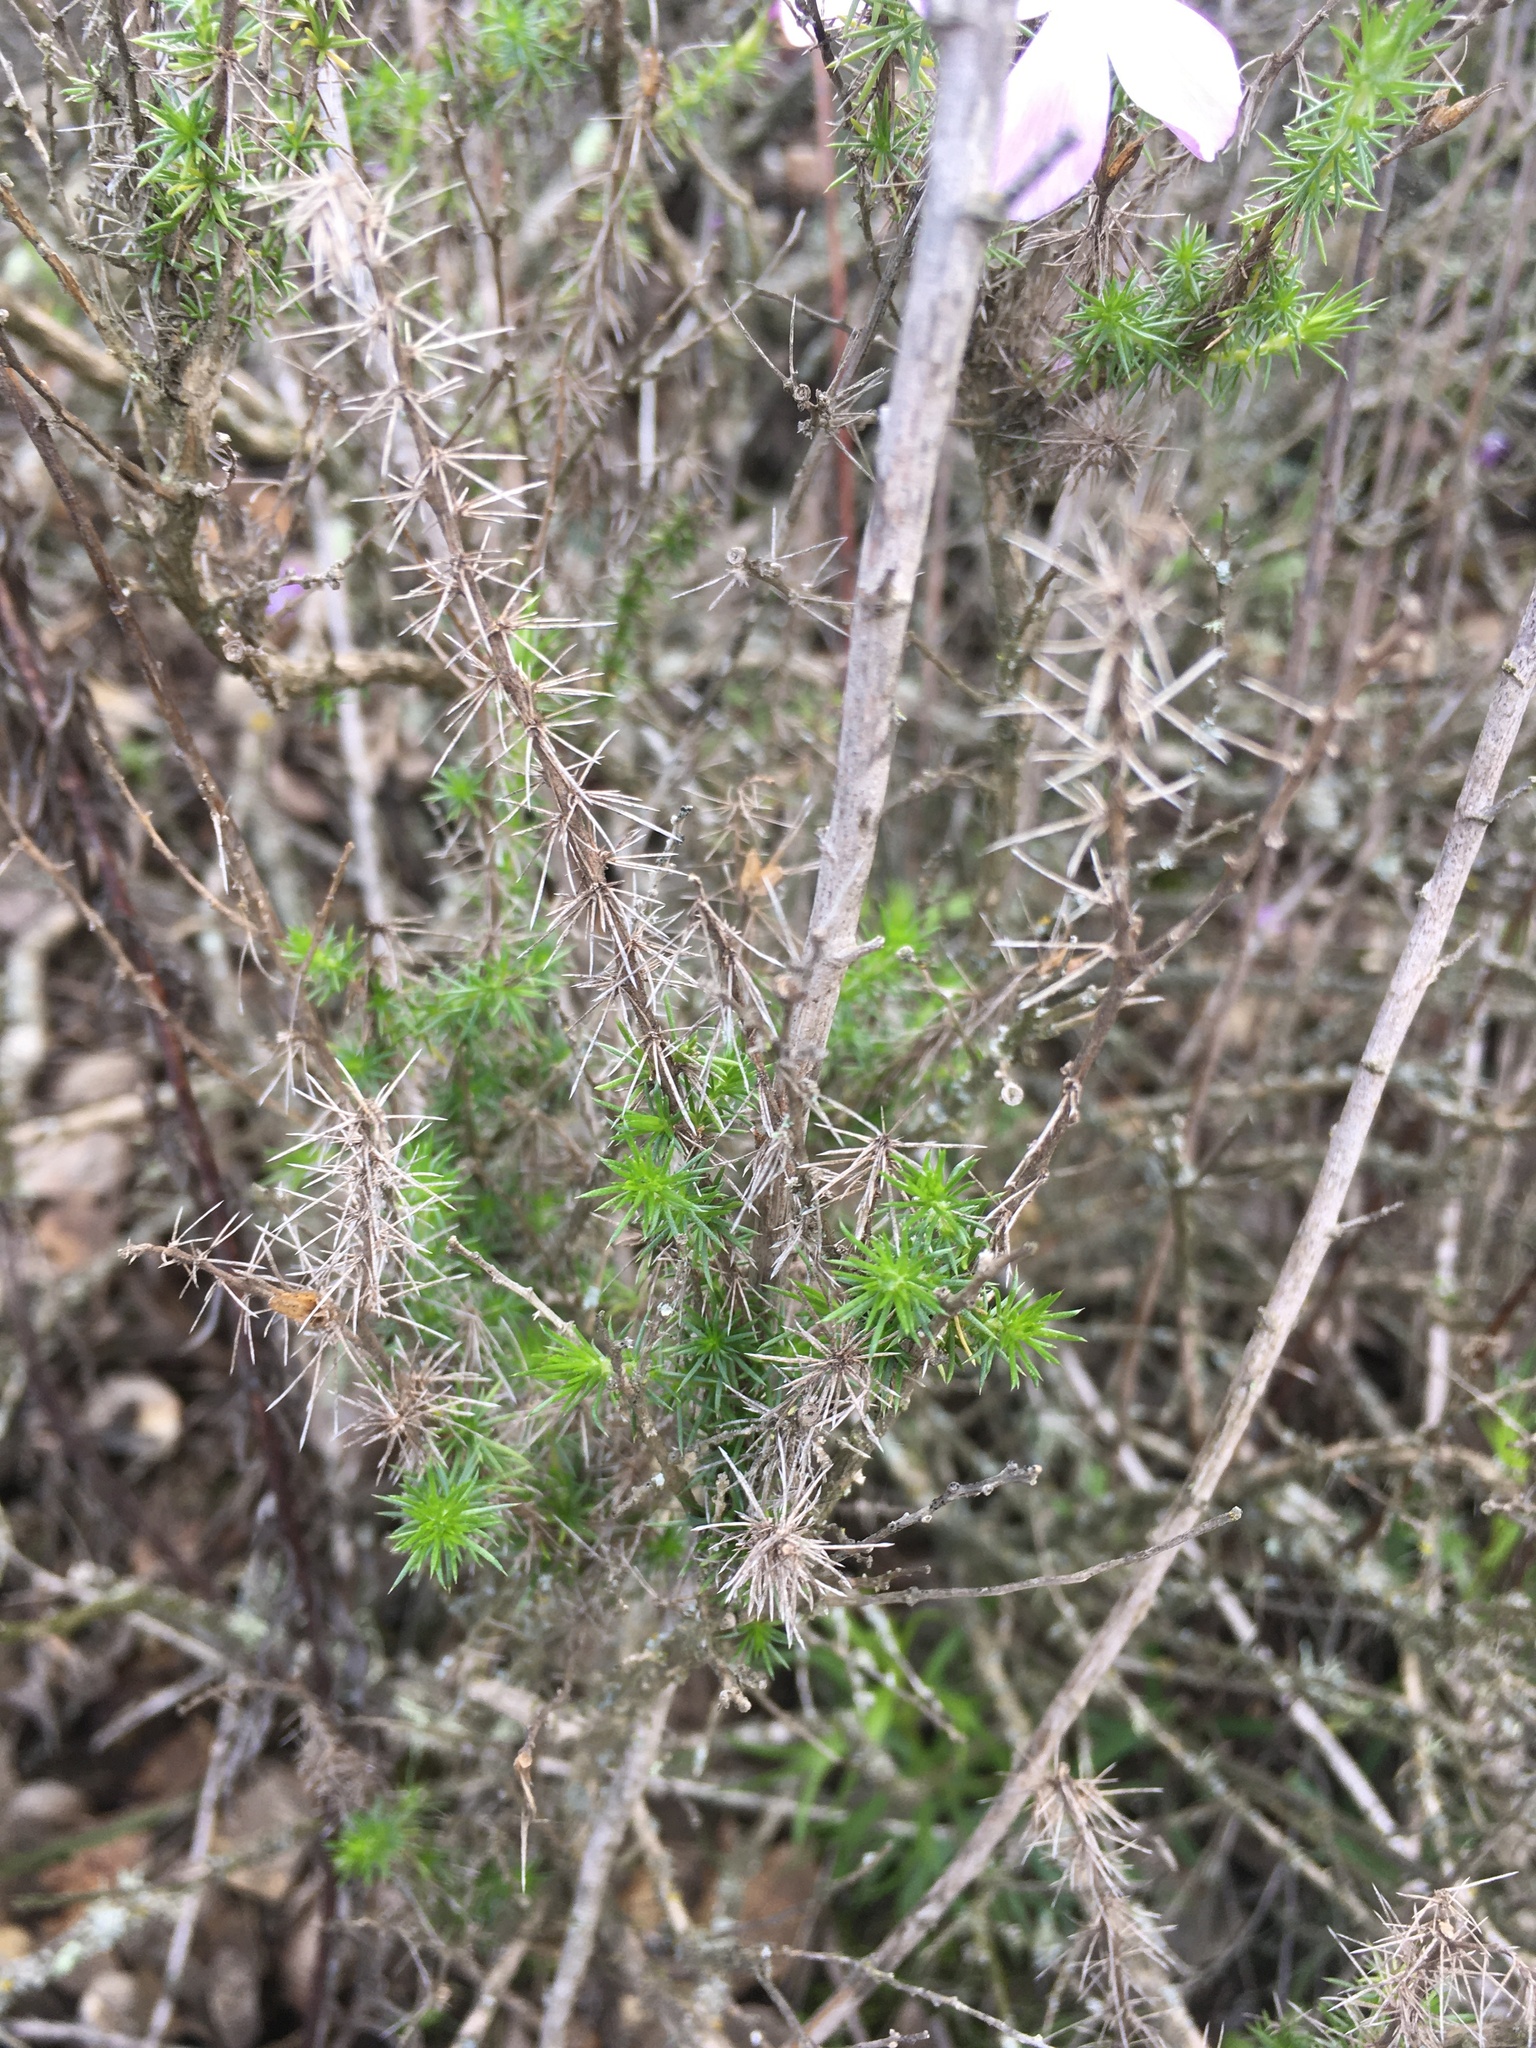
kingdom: Plantae
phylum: Tracheophyta
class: Magnoliopsida
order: Ericales
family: Polemoniaceae
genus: Linanthus
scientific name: Linanthus californicus
